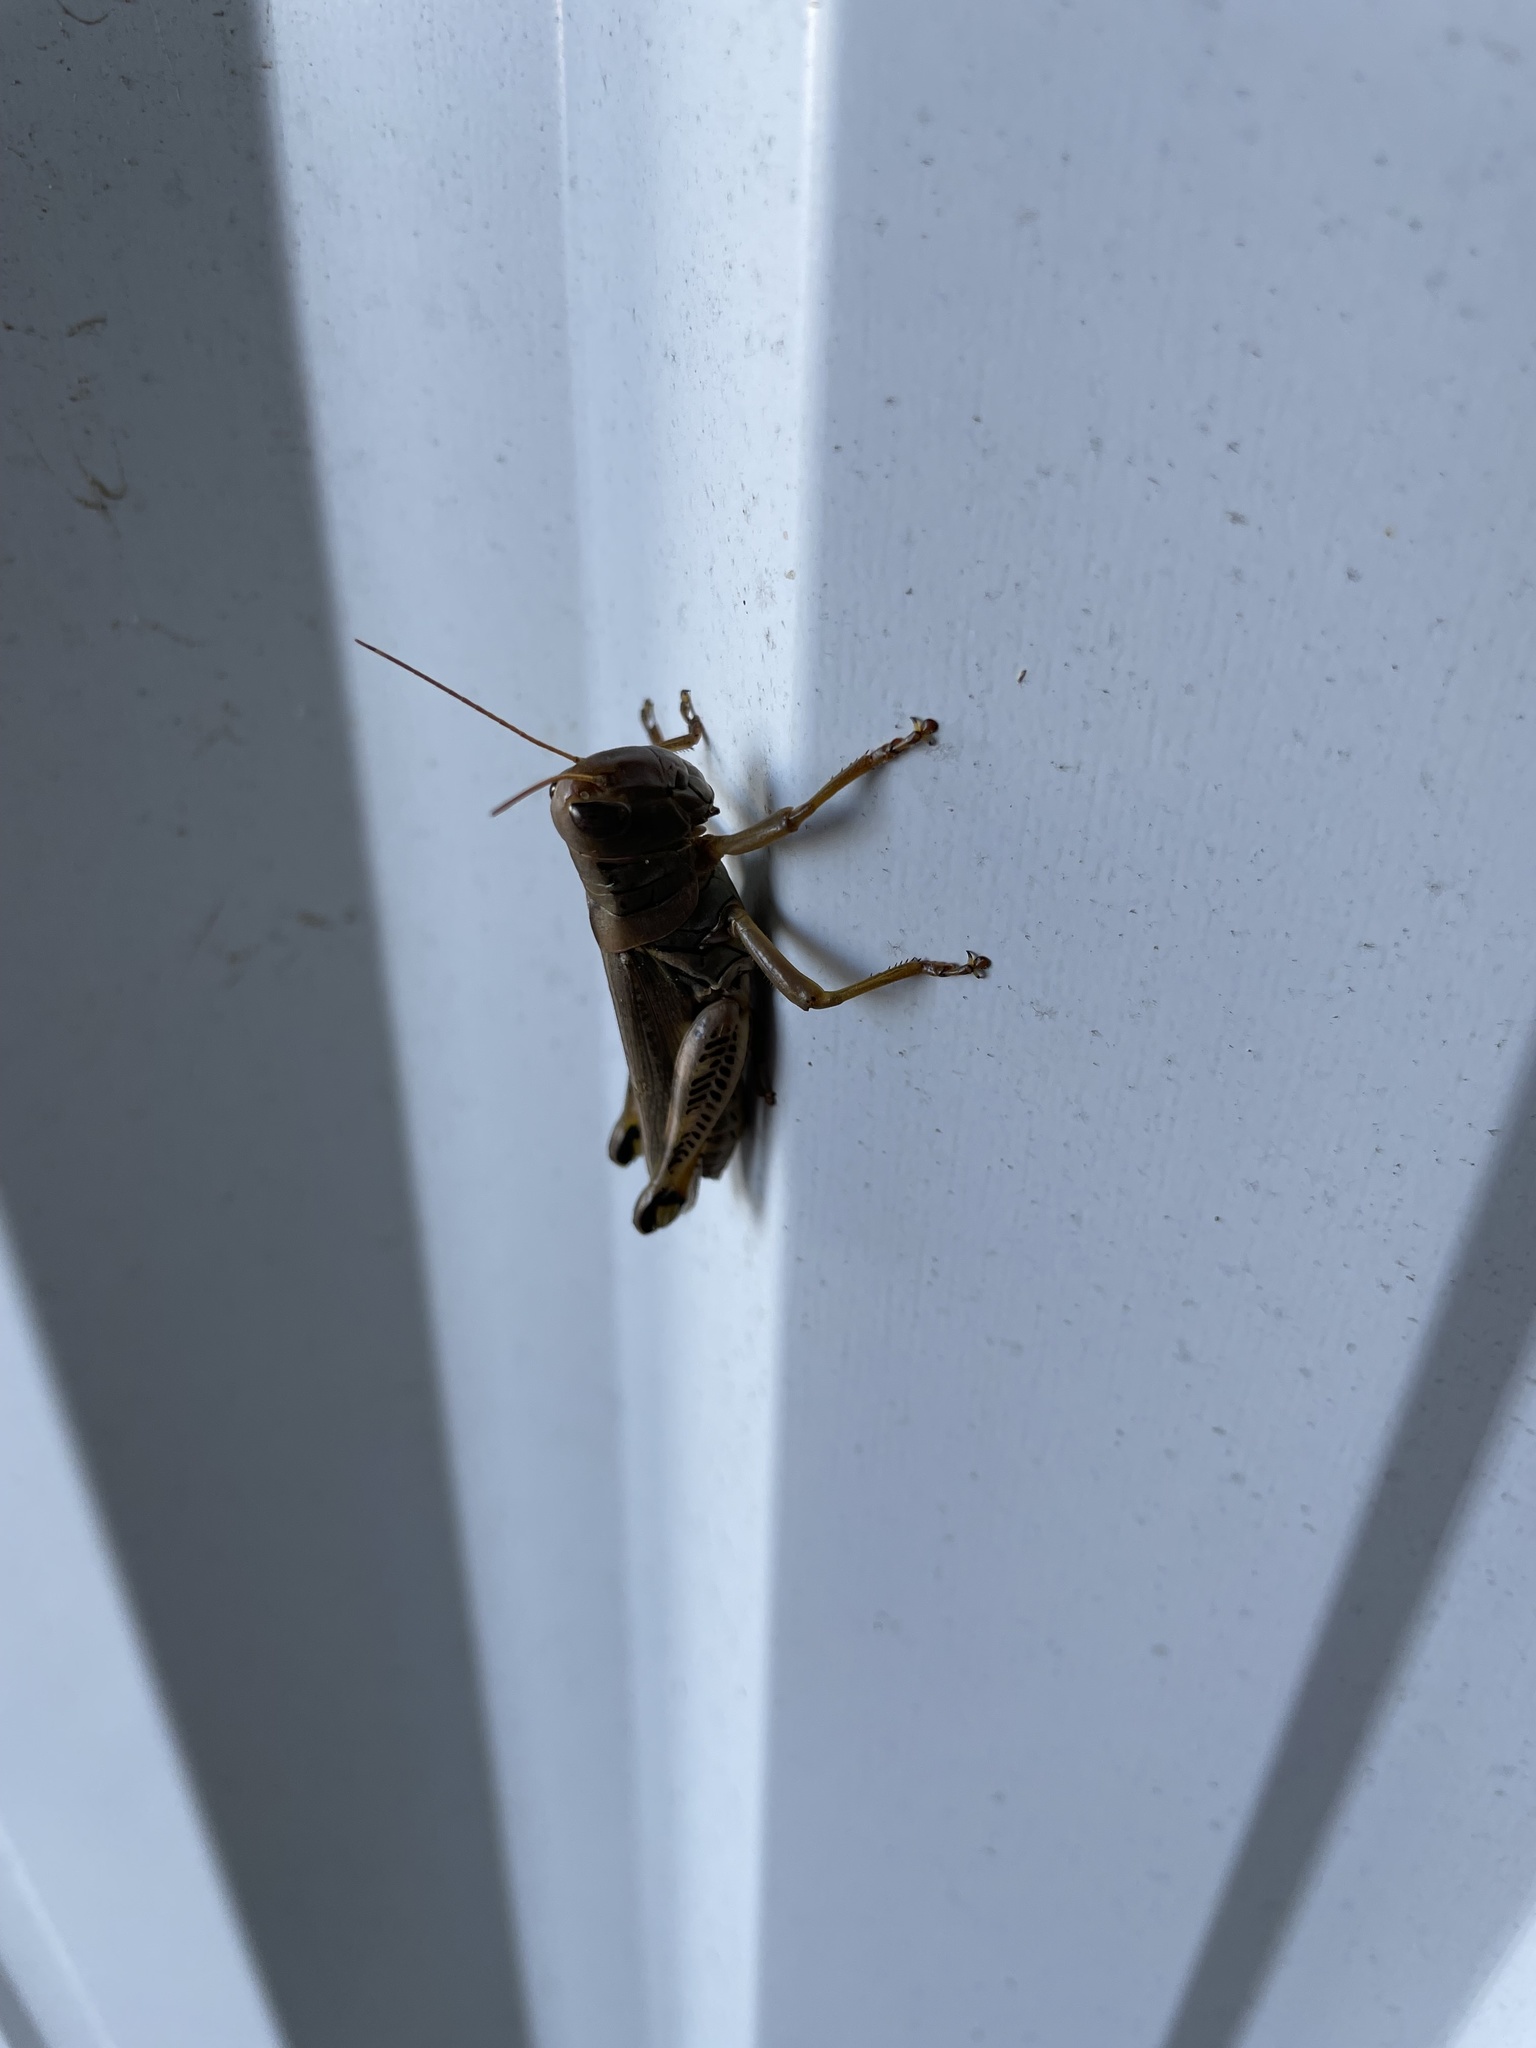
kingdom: Animalia
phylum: Arthropoda
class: Insecta
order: Orthoptera
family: Acrididae
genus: Melanoplus
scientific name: Melanoplus differentialis
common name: Differential grasshopper
